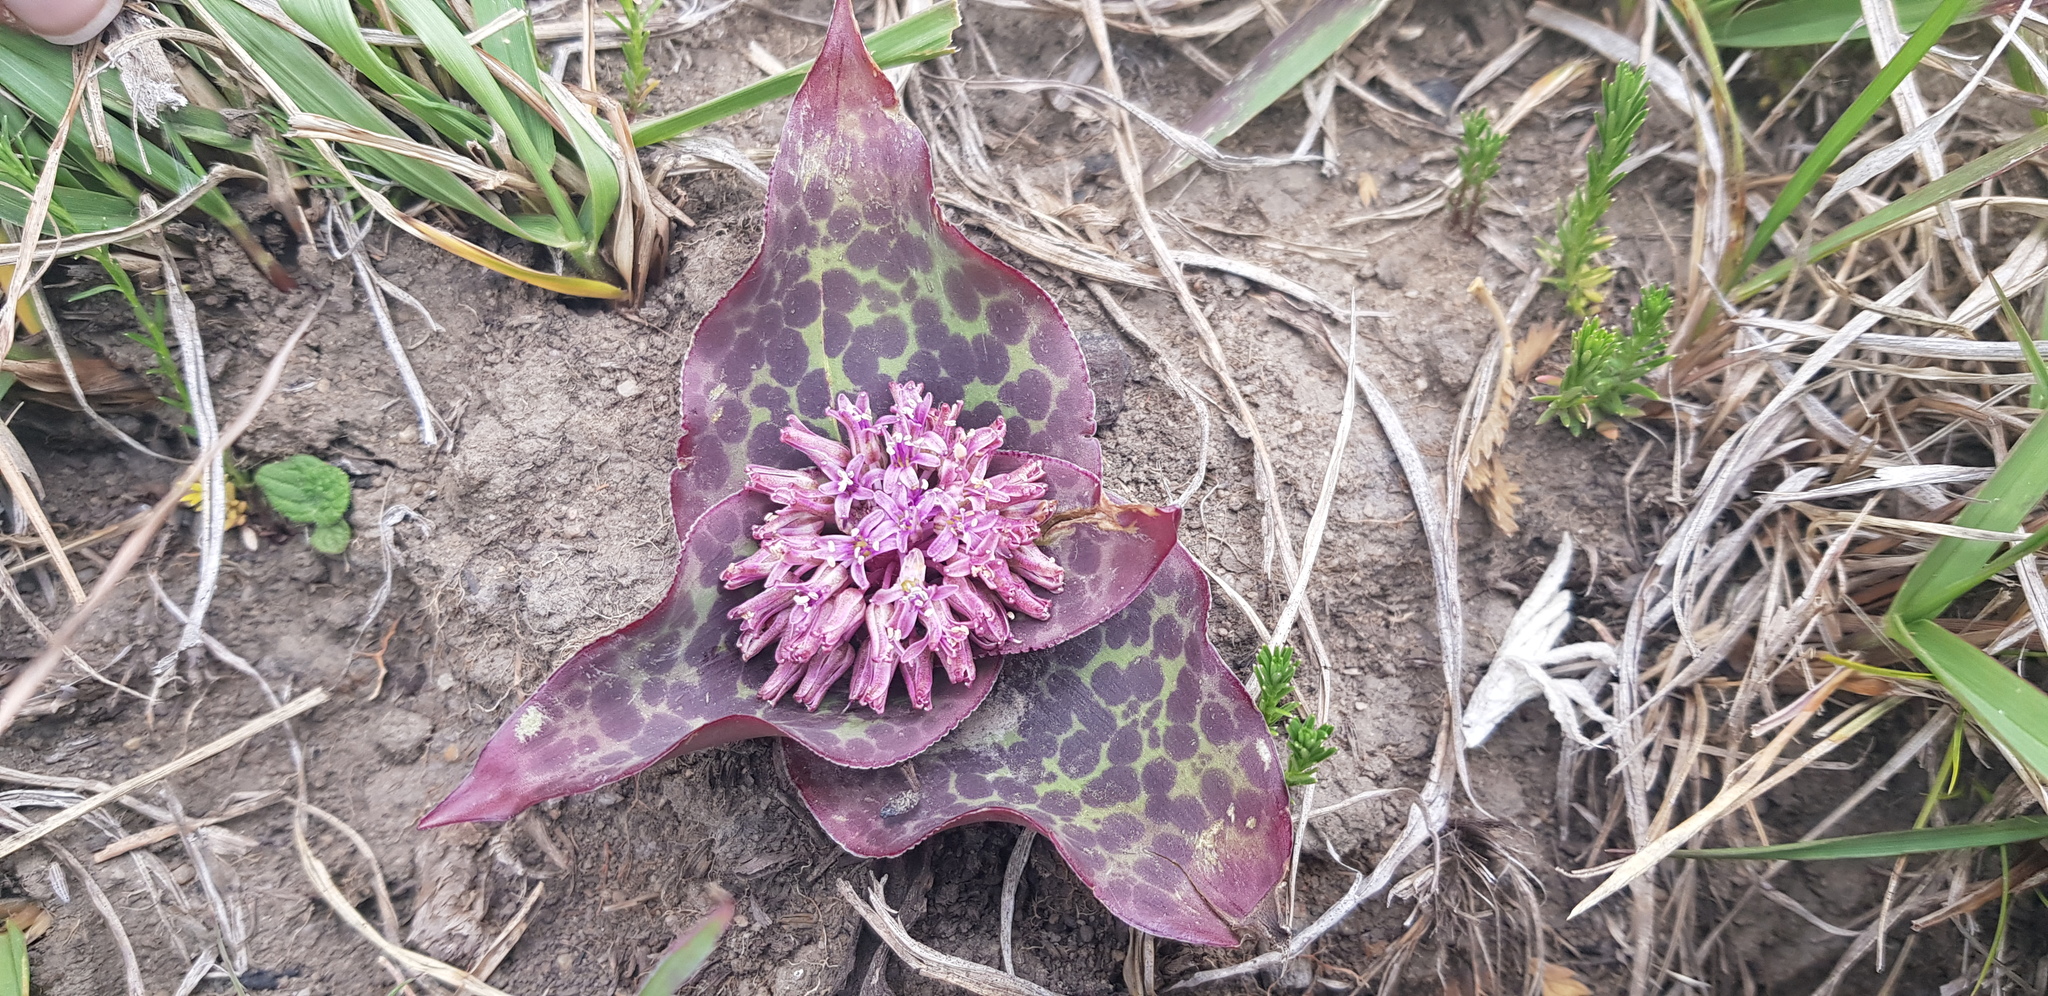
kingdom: Plantae
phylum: Tracheophyta
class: Liliopsida
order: Asparagales
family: Asparagaceae
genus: Ledebouria
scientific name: Ledebouria ovatifolia
